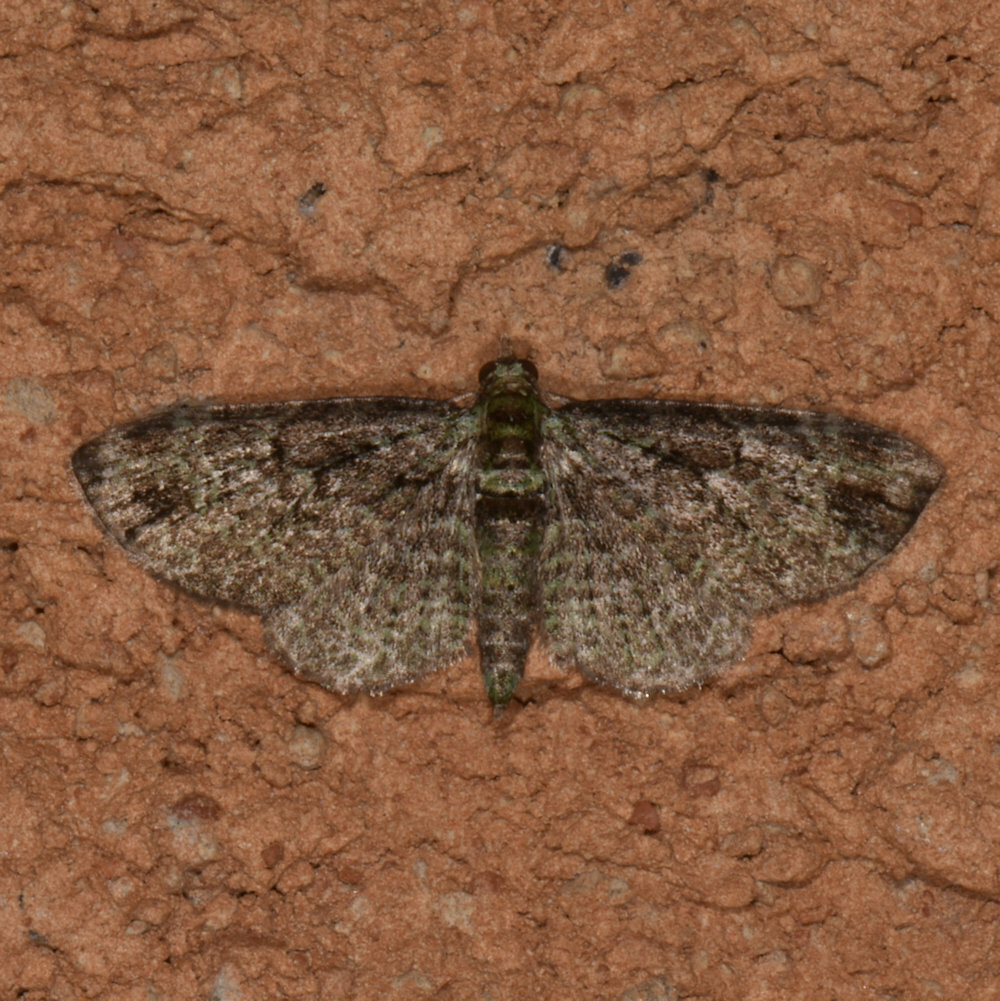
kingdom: Animalia
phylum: Arthropoda
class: Insecta
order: Lepidoptera
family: Geometridae
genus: Pasiphila
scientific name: Pasiphila rectangulata
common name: Green pug
